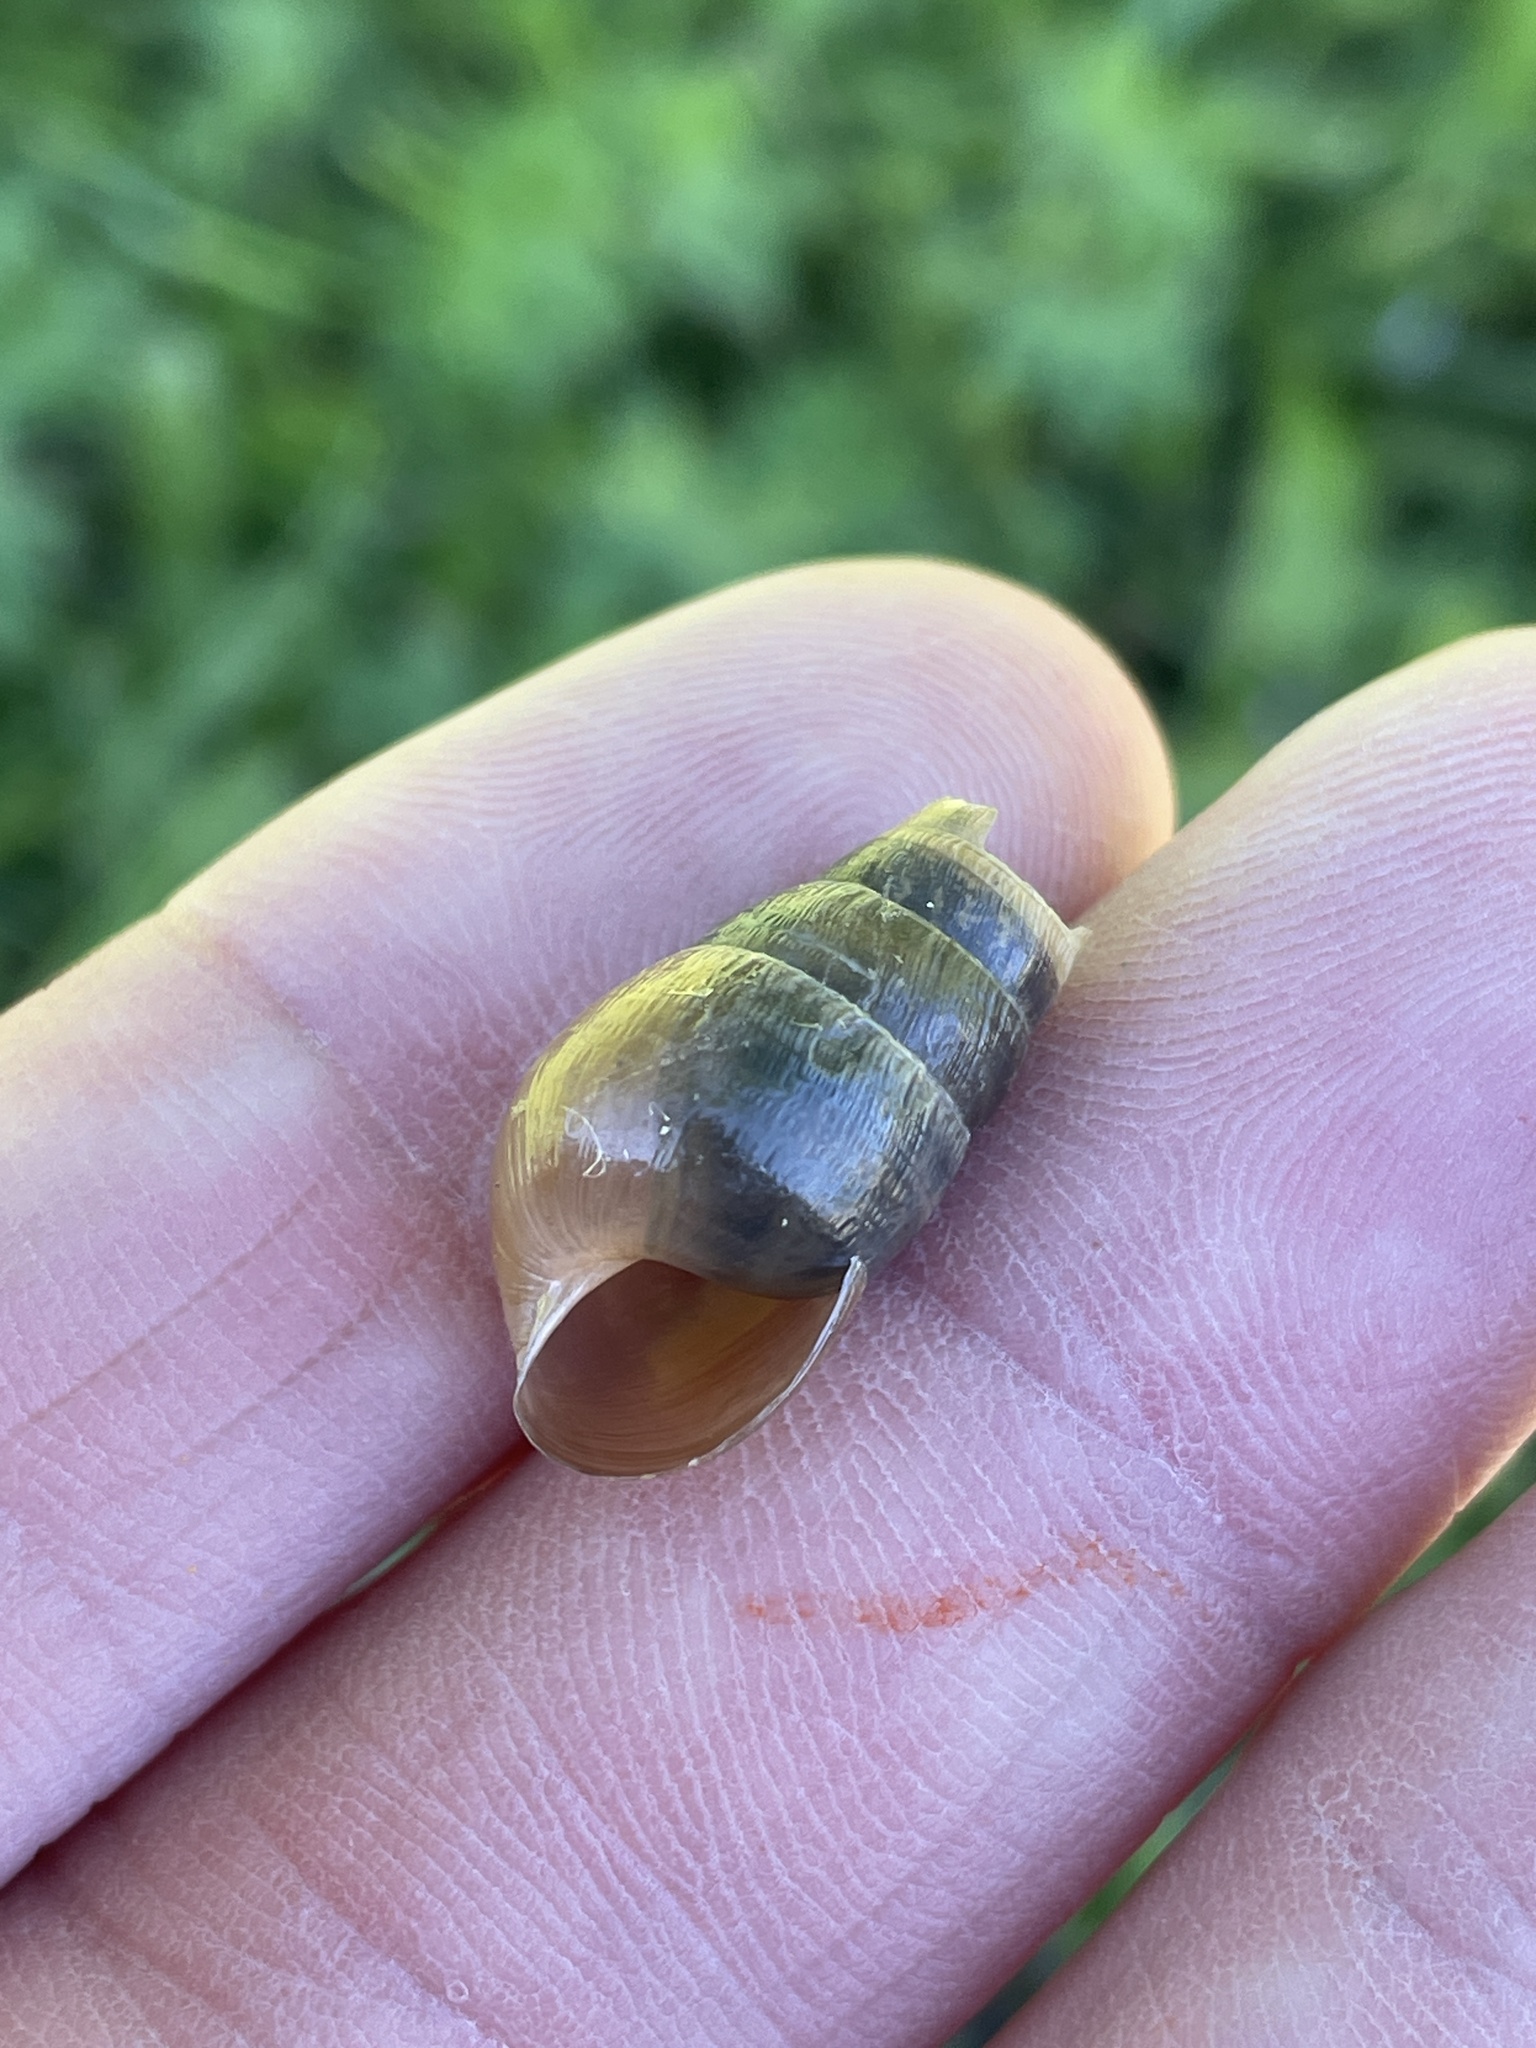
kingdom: Animalia
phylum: Mollusca
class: Gastropoda
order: Stylommatophora
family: Achatinidae
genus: Rumina
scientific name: Rumina decollata
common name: Decollate snail
